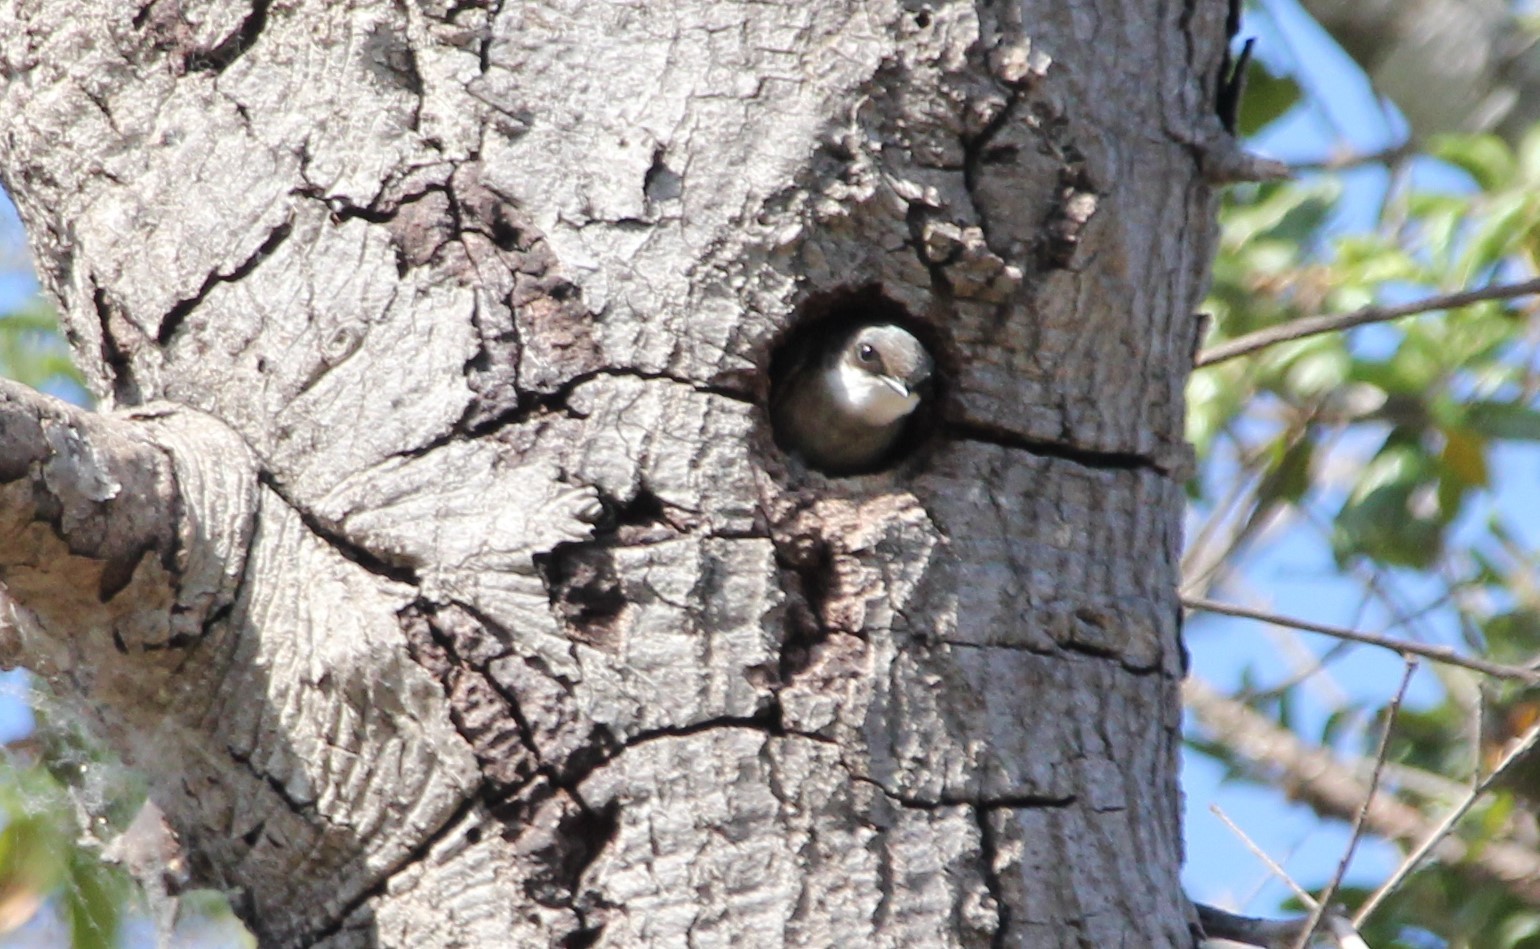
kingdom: Animalia
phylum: Chordata
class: Aves
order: Passeriformes
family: Hirundinidae
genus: Tachycineta
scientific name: Tachycineta bicolor
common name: Tree swallow
